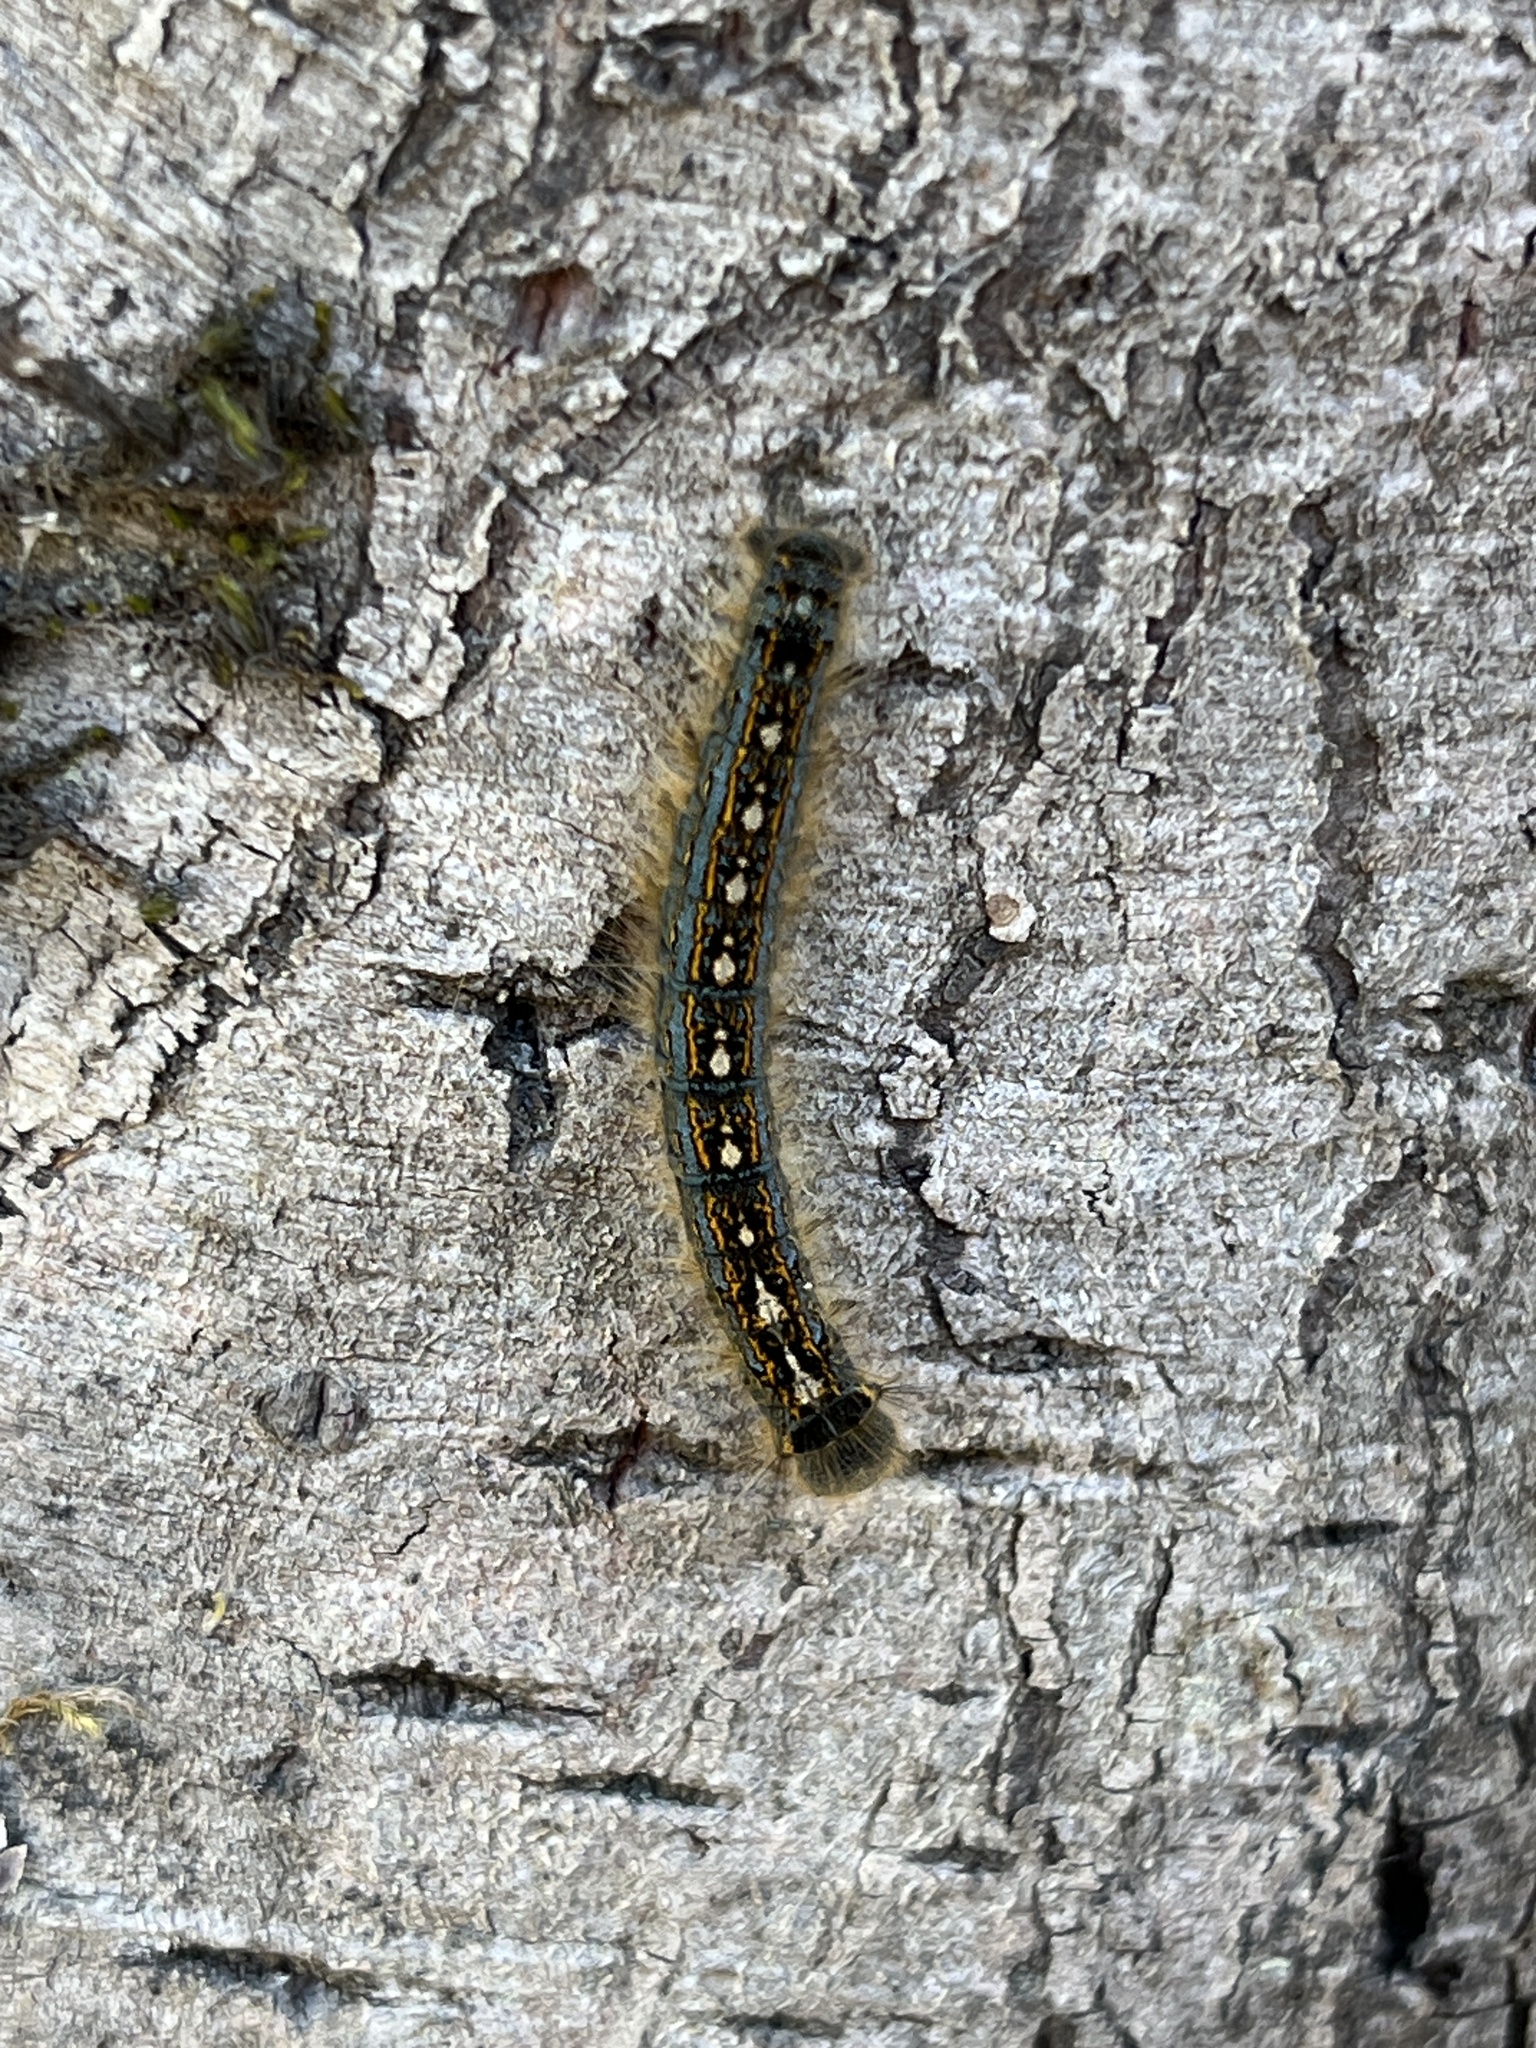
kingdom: Animalia
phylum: Arthropoda
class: Insecta
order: Lepidoptera
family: Lasiocampidae
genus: Malacosoma
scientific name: Malacosoma disstria
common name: Forest tent caterpillar
